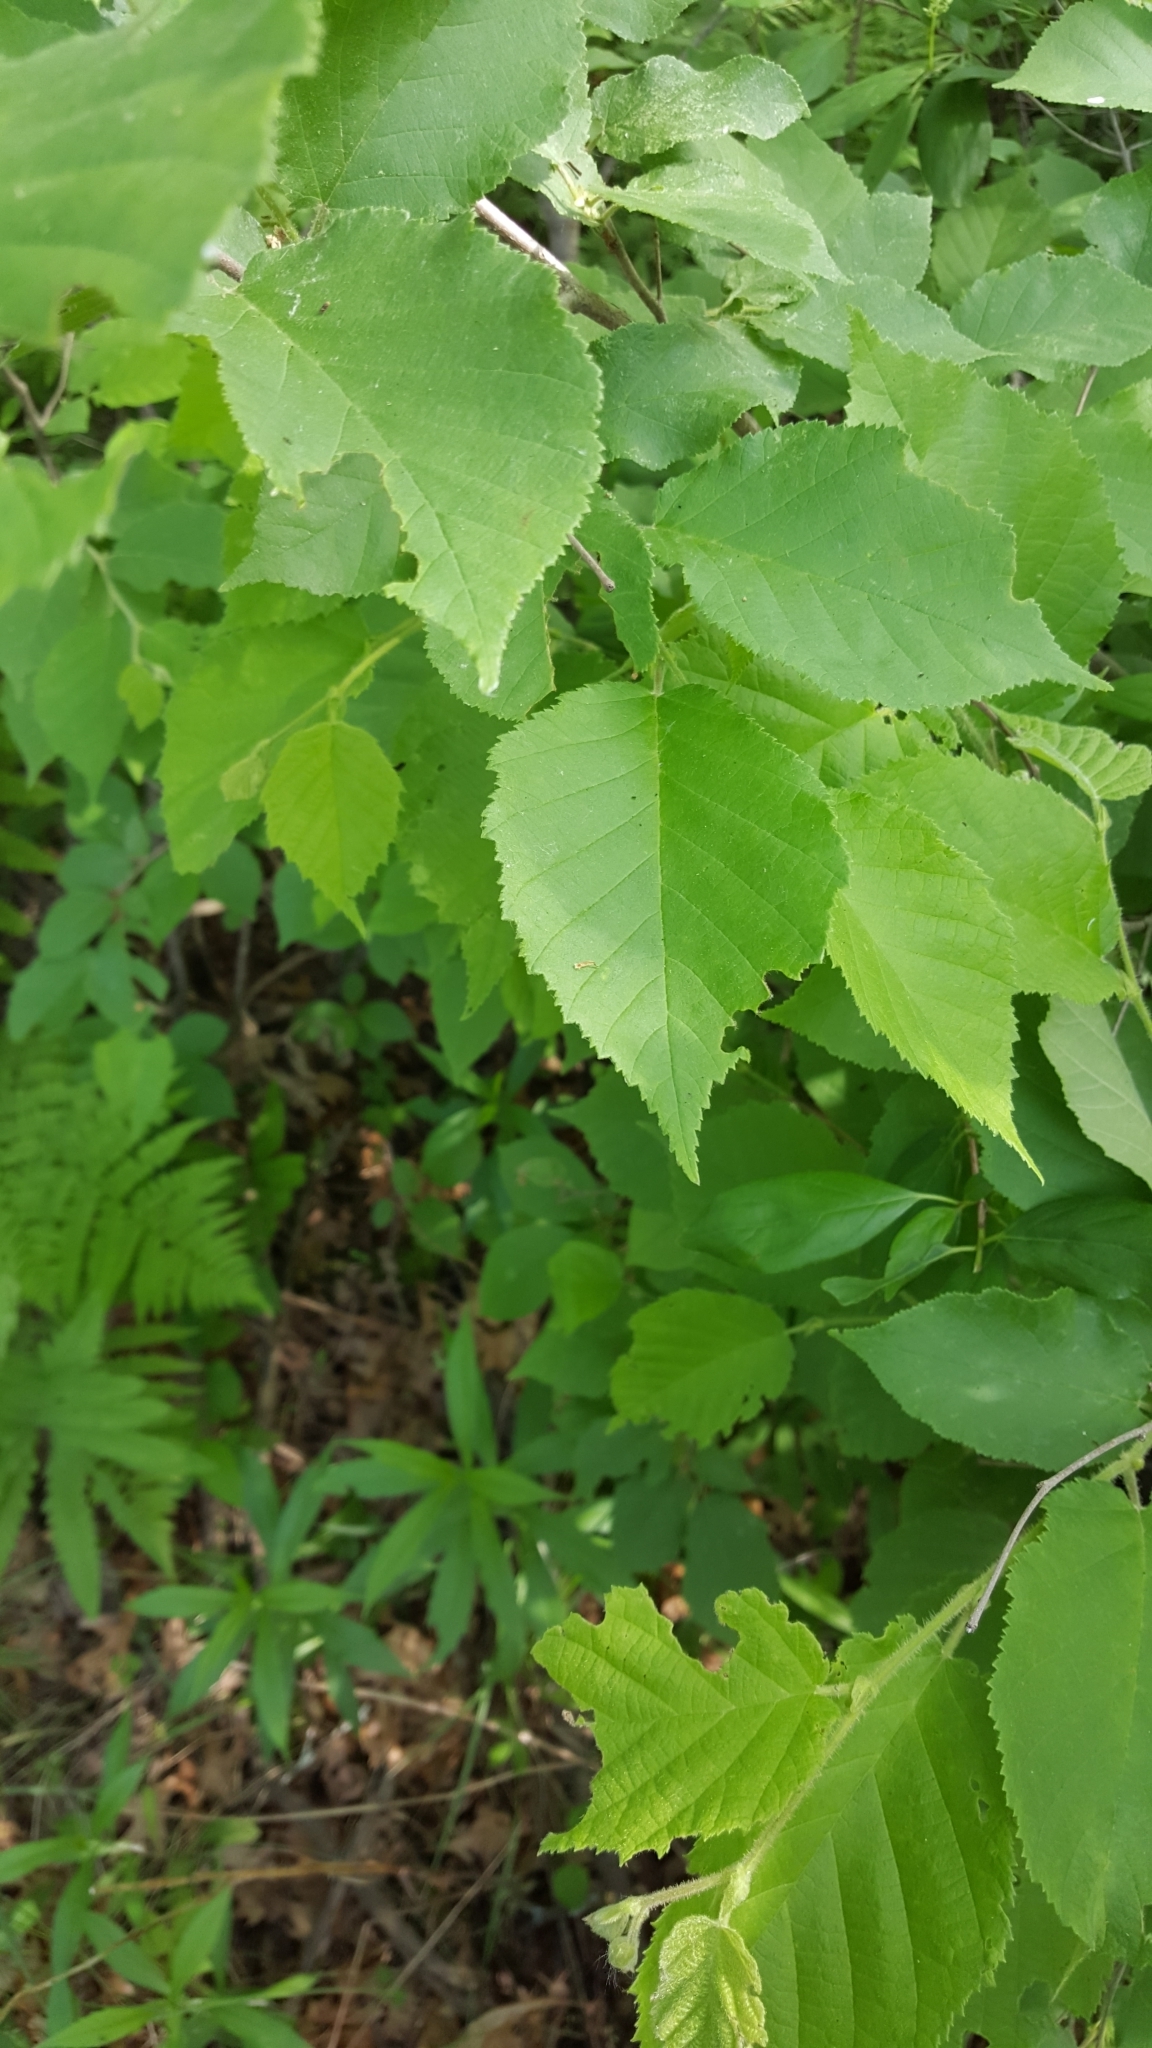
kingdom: Plantae
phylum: Tracheophyta
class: Magnoliopsida
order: Fagales
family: Betulaceae
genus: Corylus
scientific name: Corylus americana
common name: American hazel
